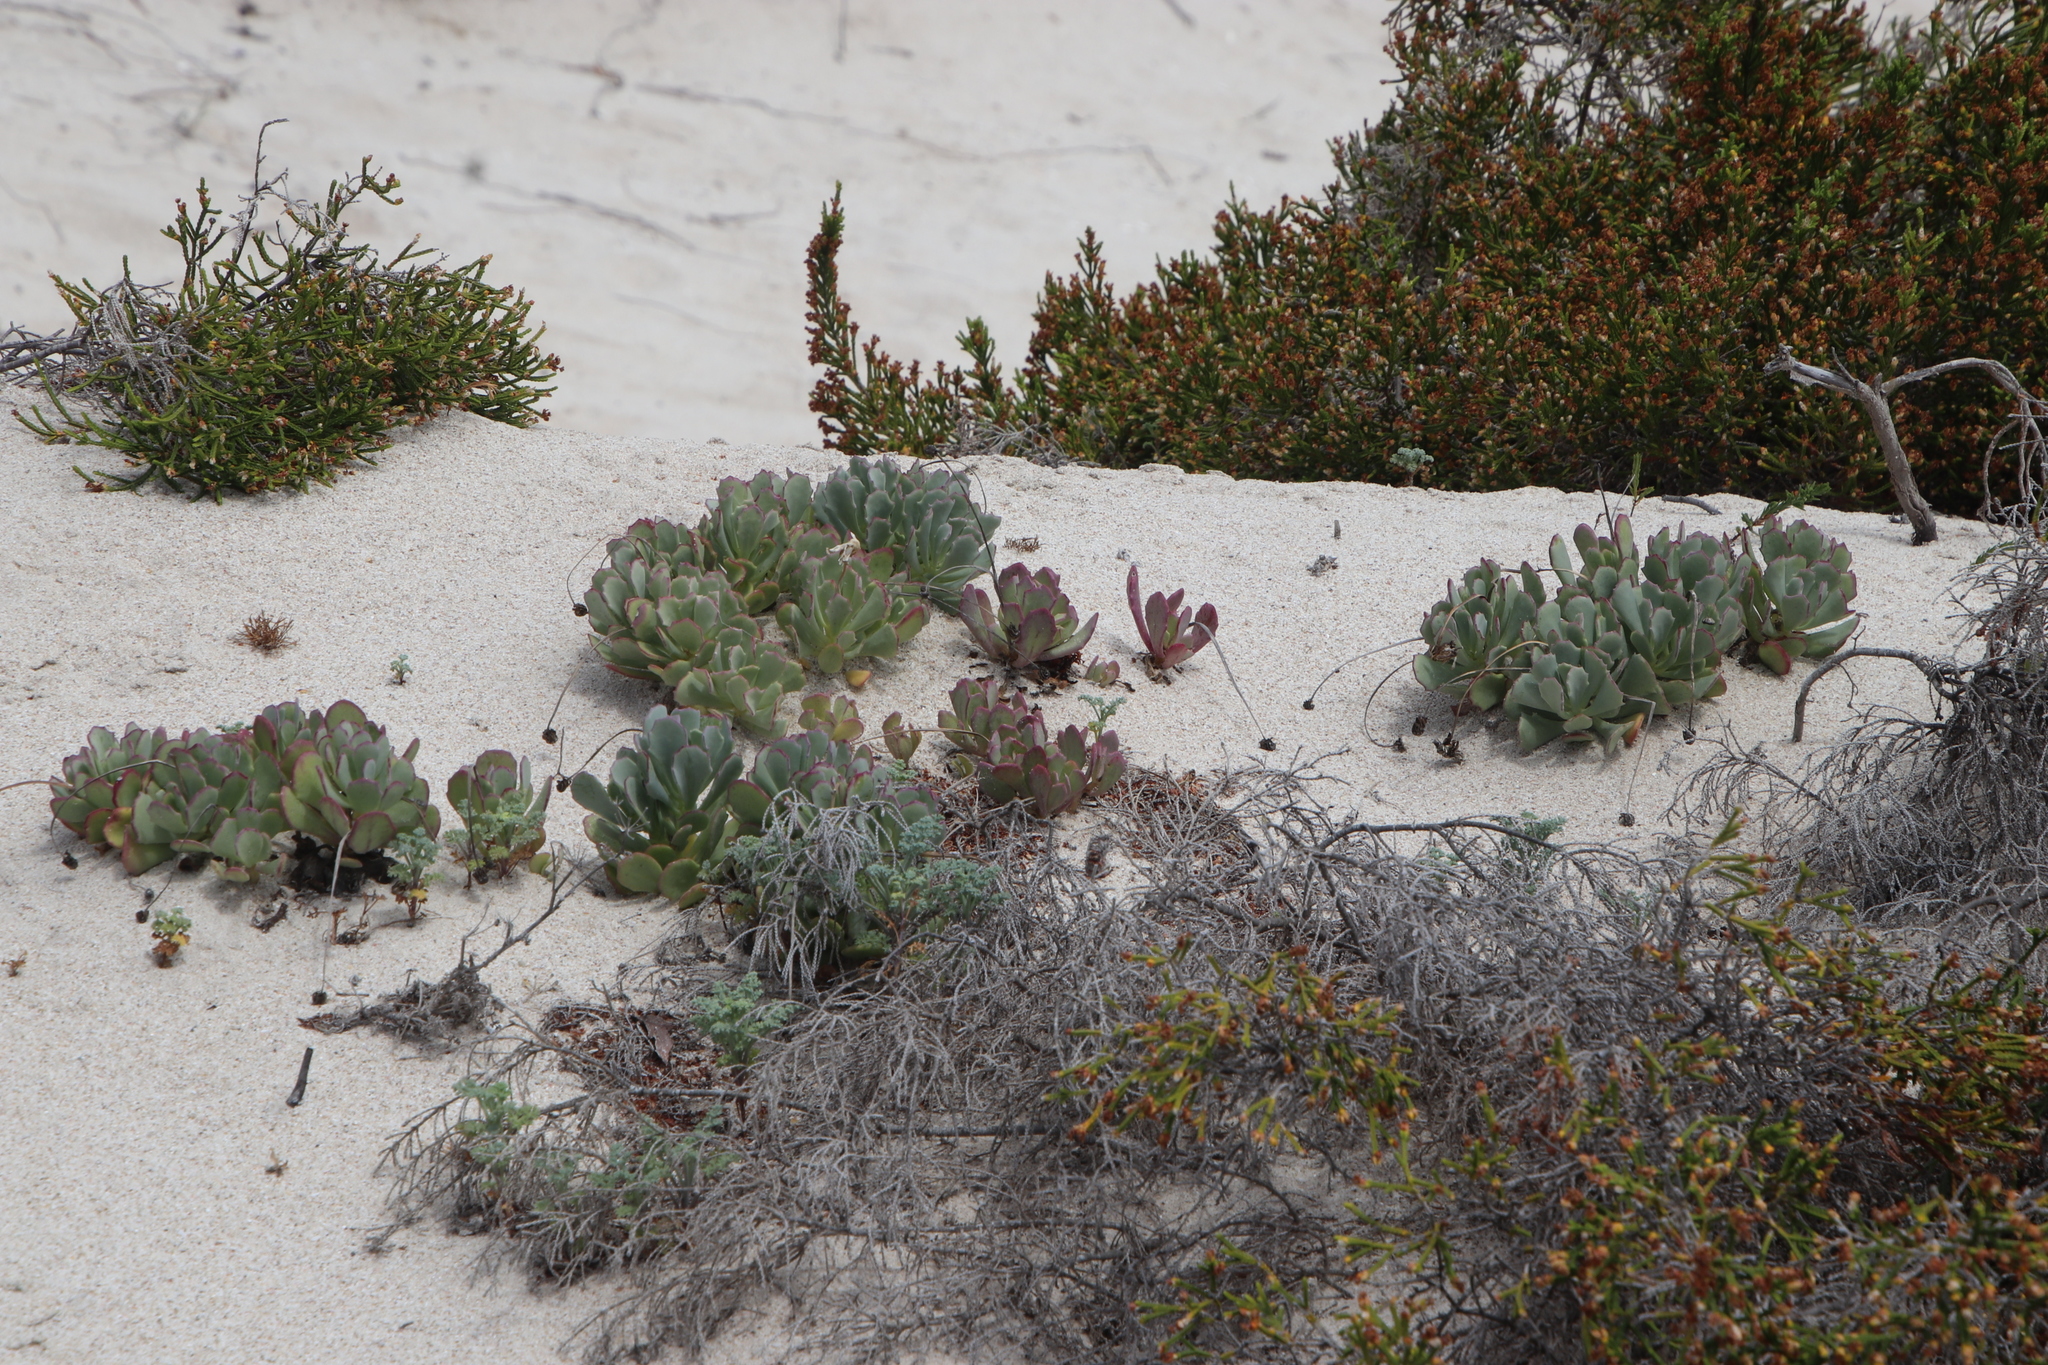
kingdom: Plantae
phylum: Tracheophyta
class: Magnoliopsida
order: Asterales
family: Asteraceae
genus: Othonna
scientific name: Othonna
